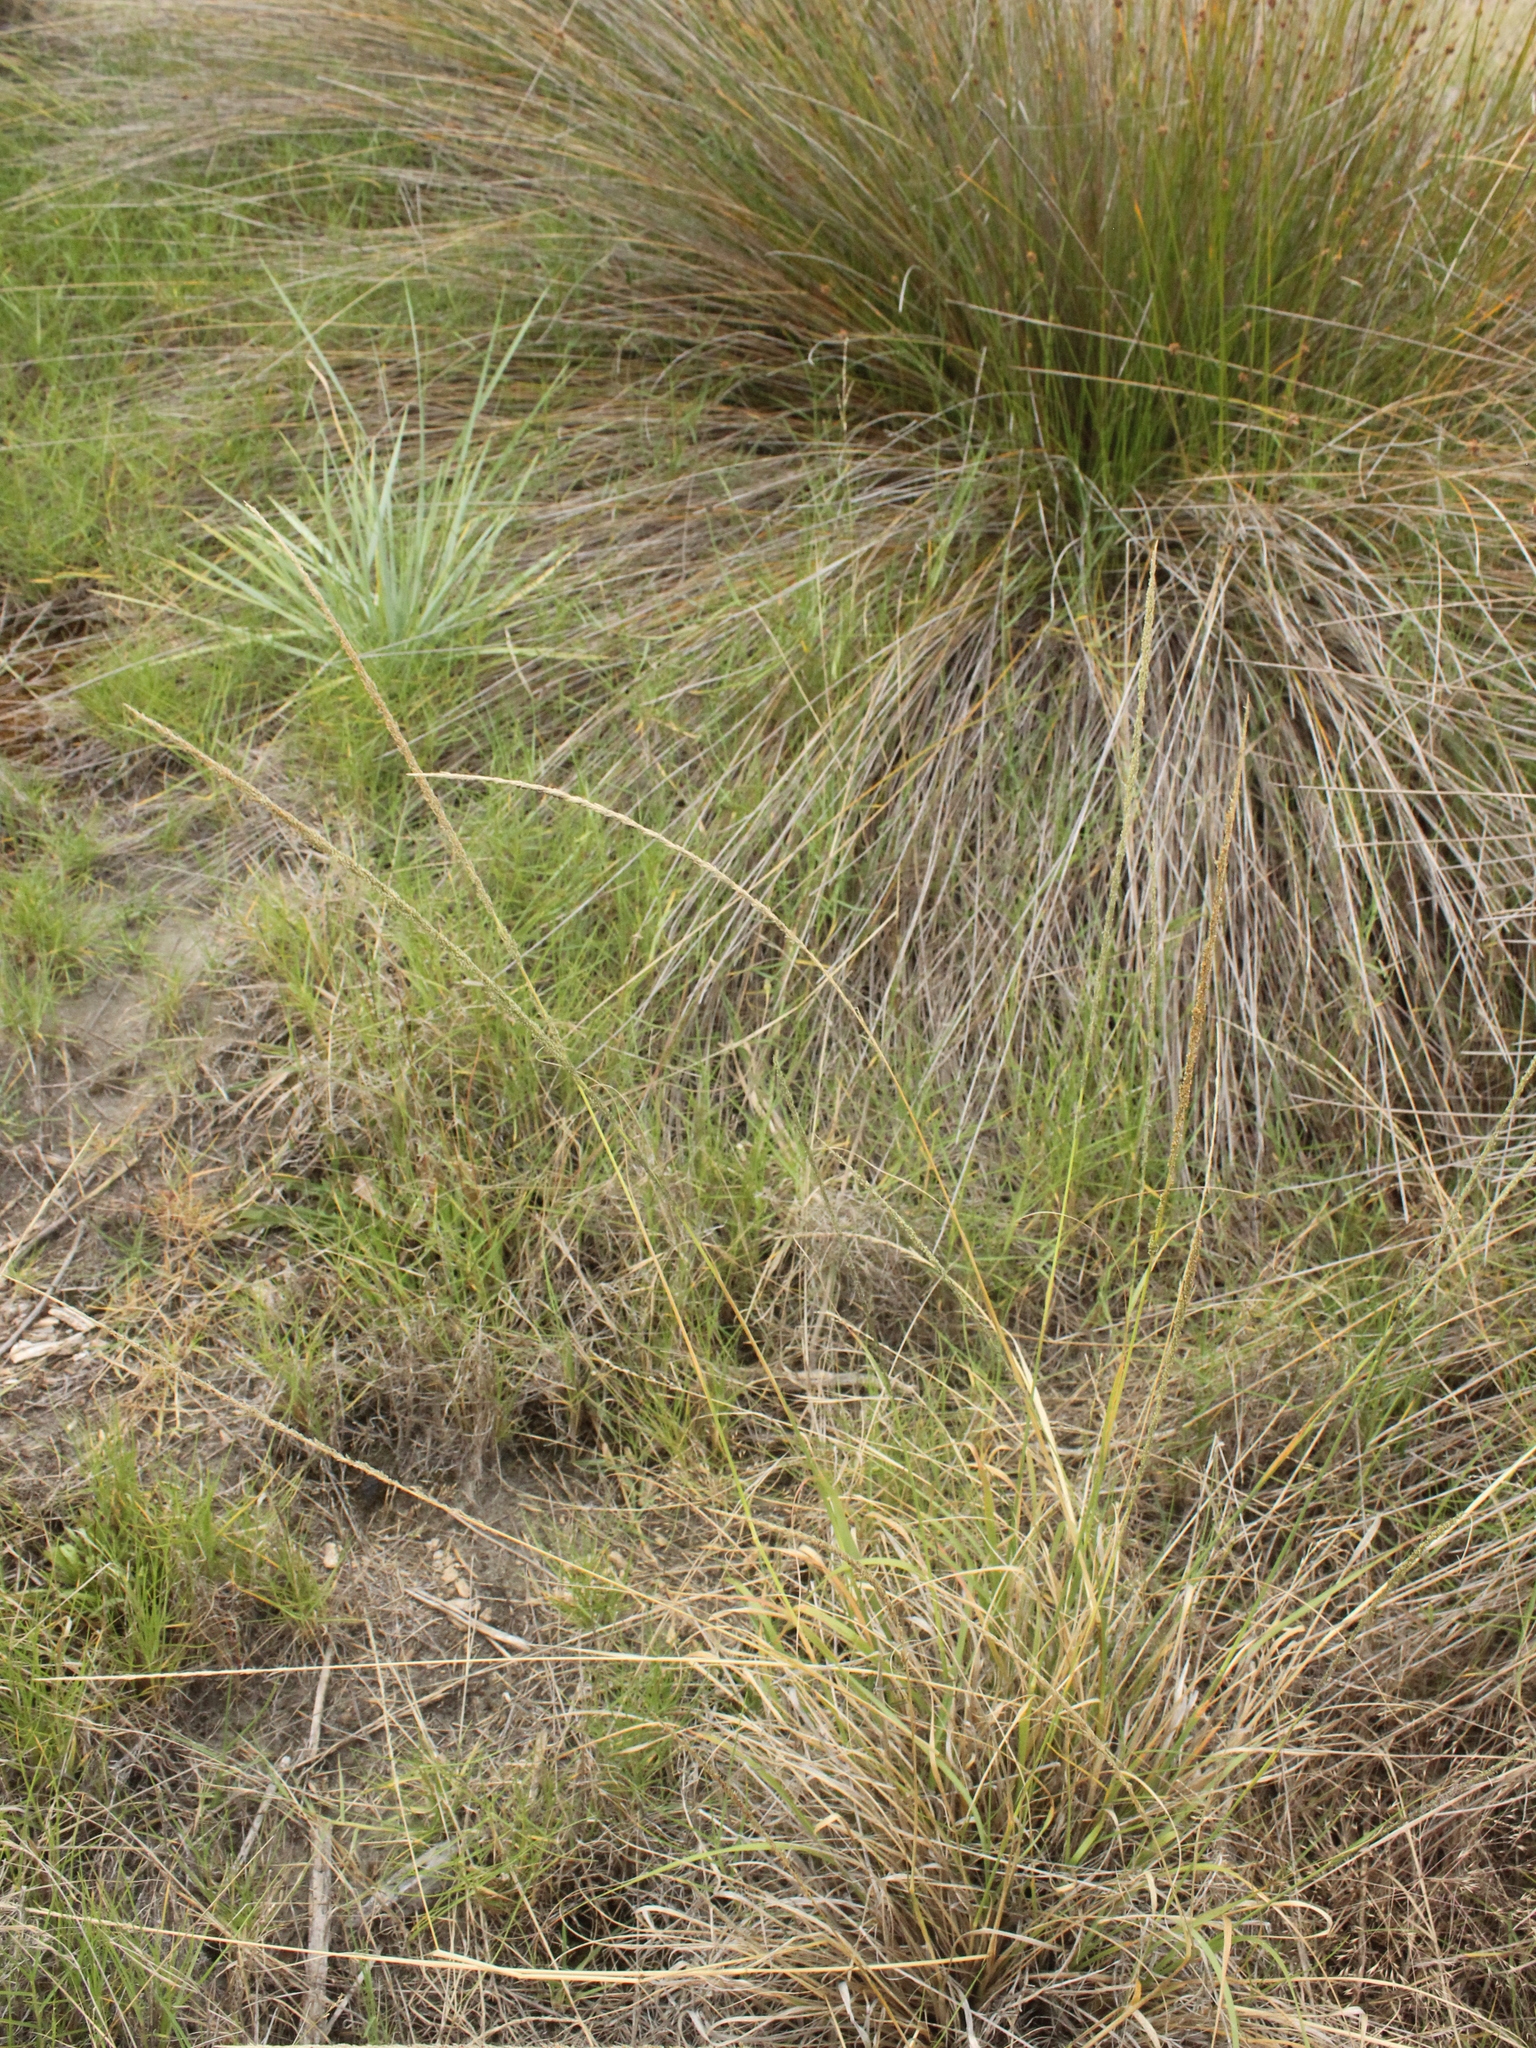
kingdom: Plantae
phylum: Tracheophyta
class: Liliopsida
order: Poales
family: Poaceae
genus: Sporobolus
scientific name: Sporobolus africanus
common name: African dropseed
